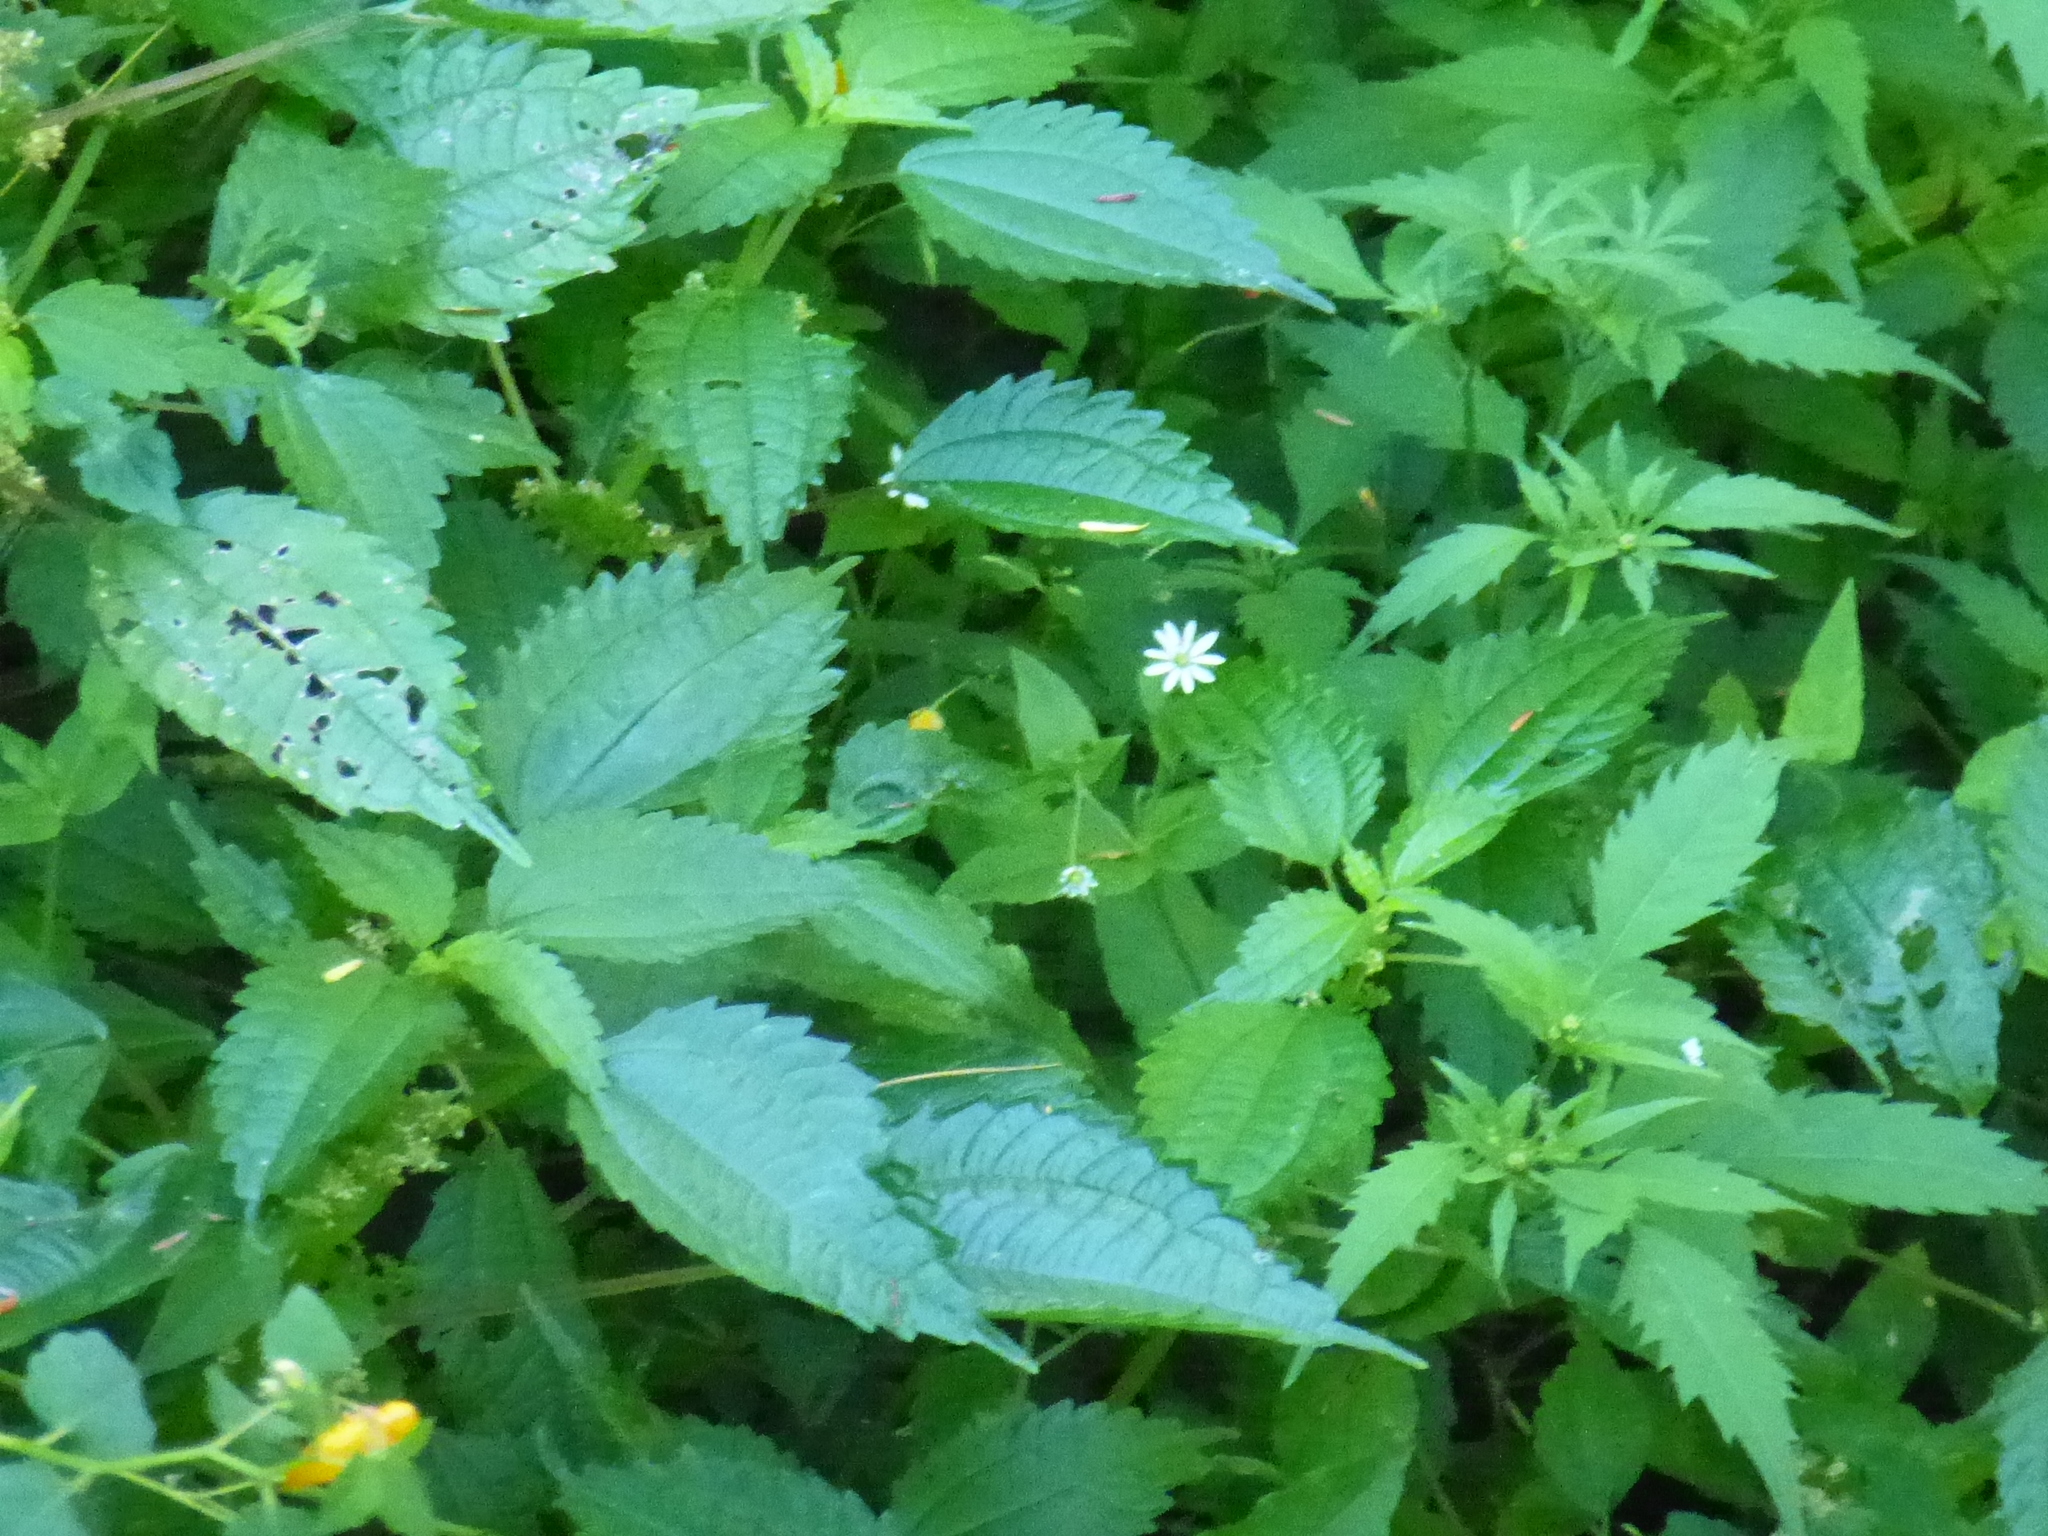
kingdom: Plantae
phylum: Tracheophyta
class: Magnoliopsida
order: Rosales
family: Urticaceae
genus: Pilea
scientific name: Pilea pumila
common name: Clearweed
